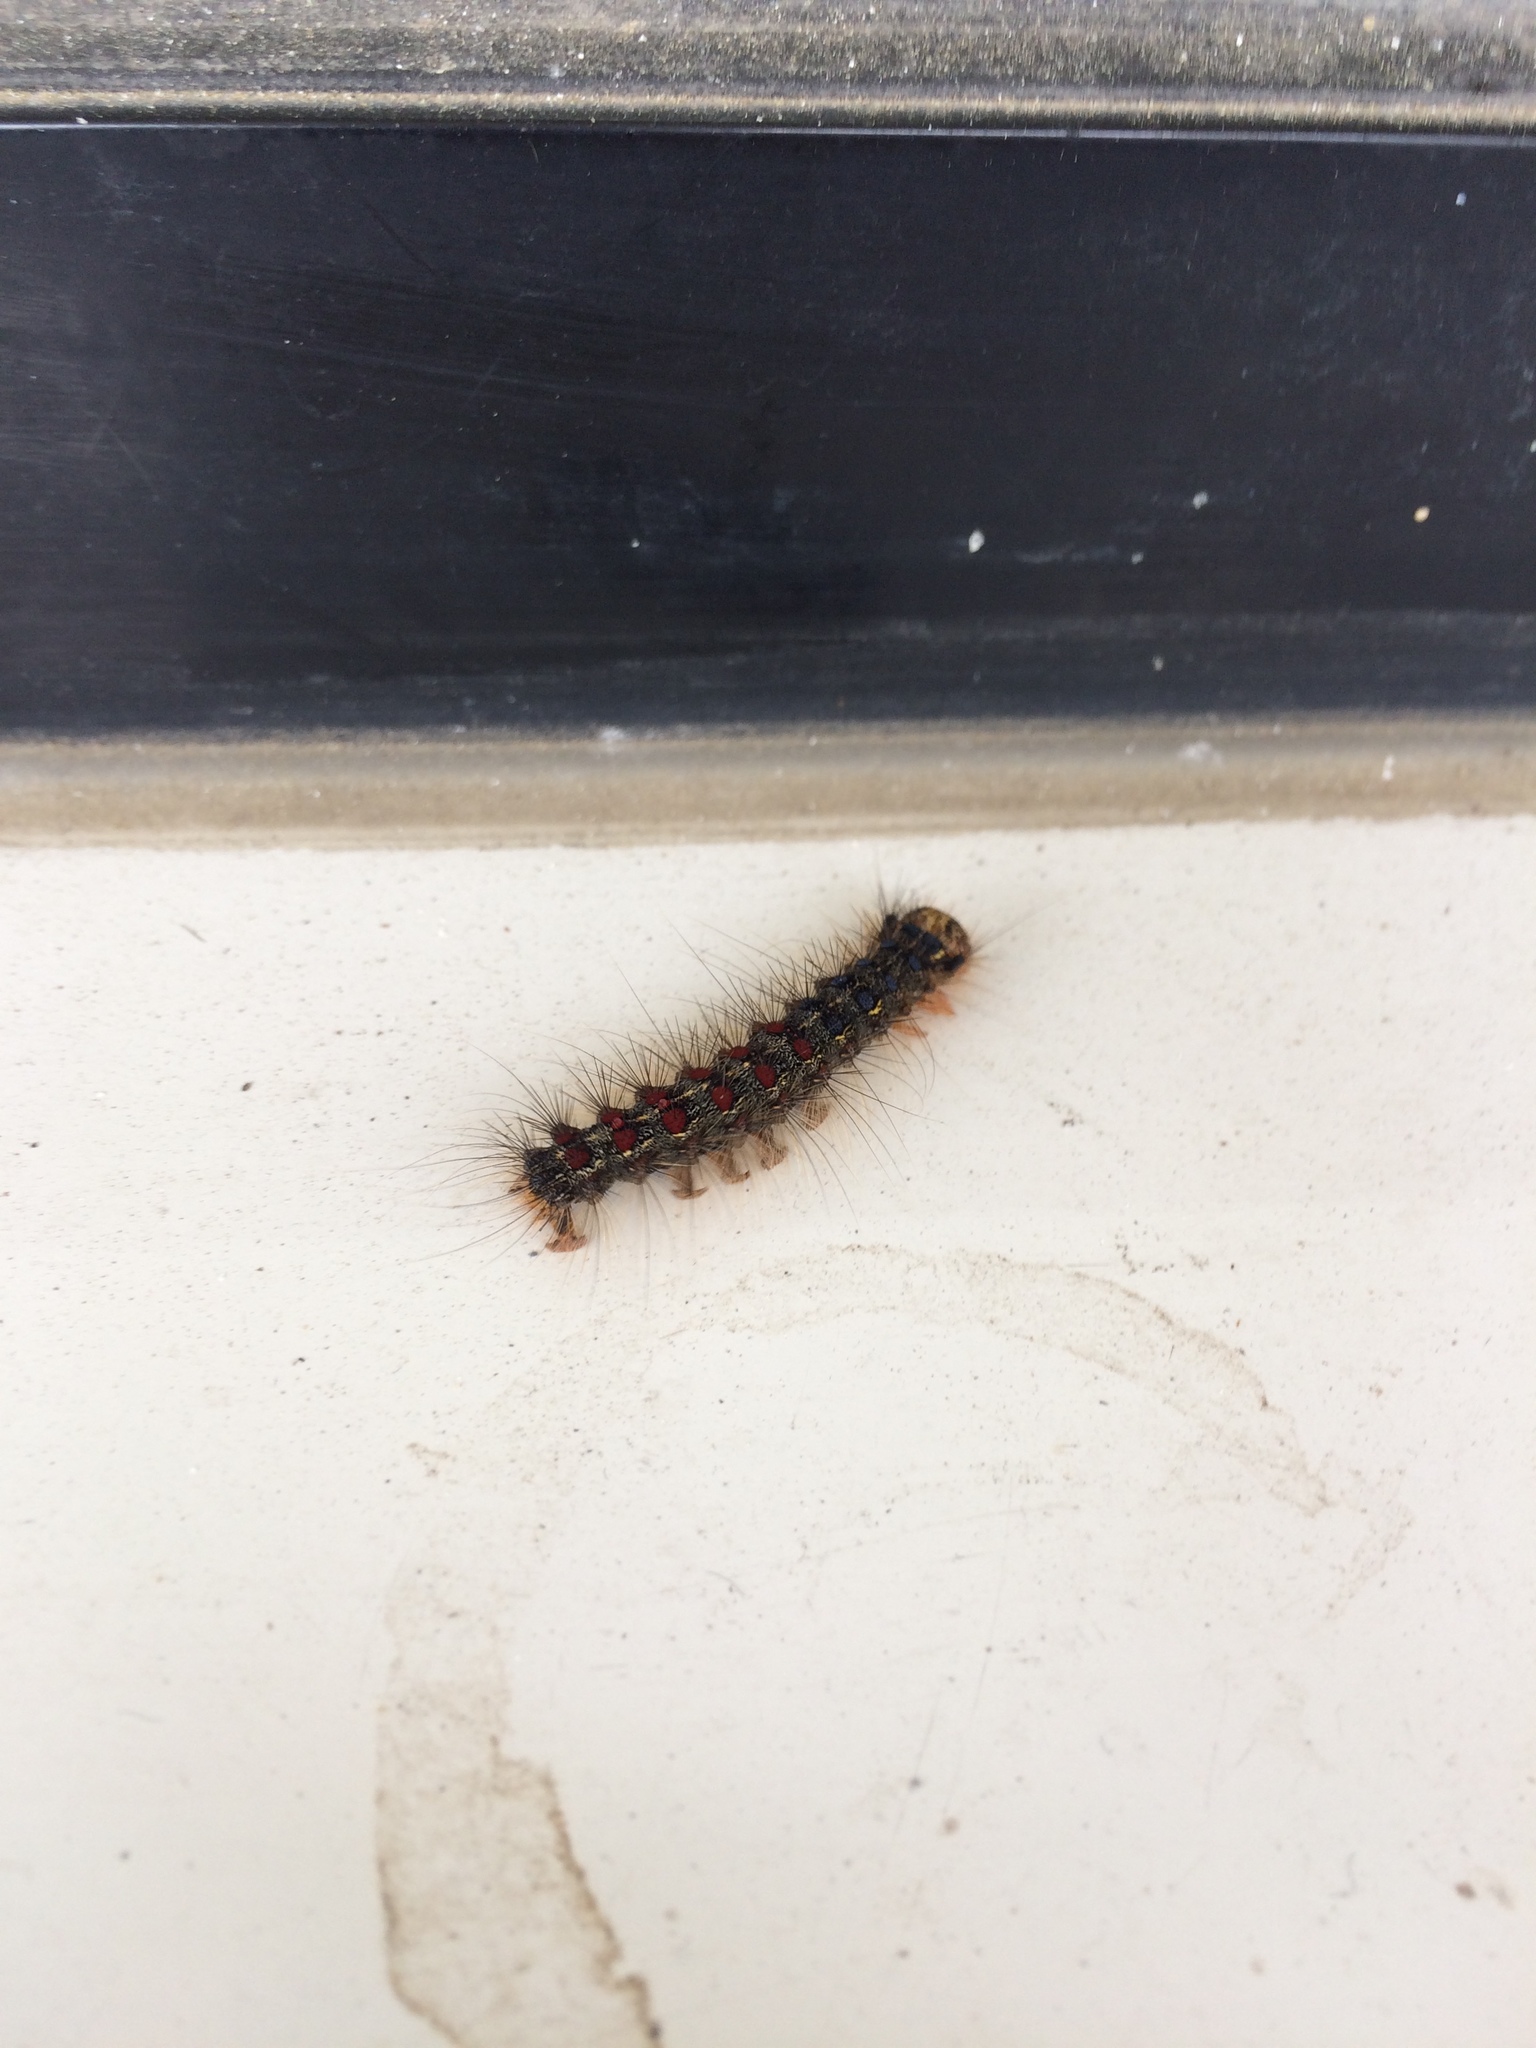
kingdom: Animalia
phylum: Arthropoda
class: Insecta
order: Lepidoptera
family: Erebidae
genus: Lymantria
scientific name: Lymantria dispar
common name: Gypsy moth
